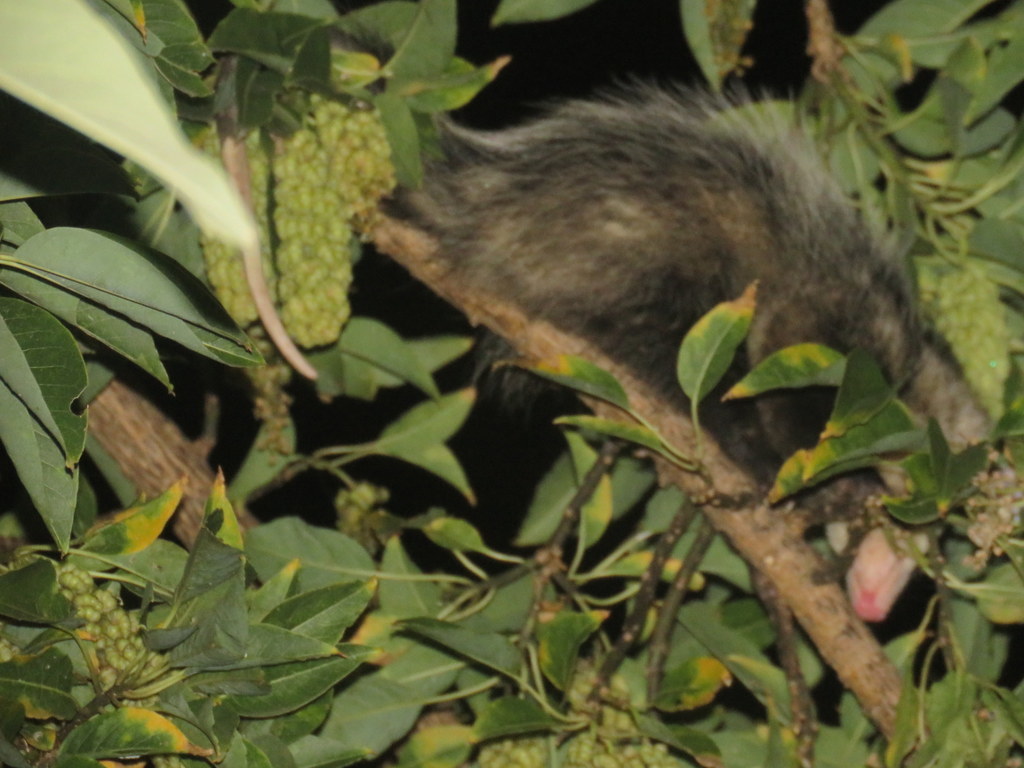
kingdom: Animalia
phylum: Chordata
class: Mammalia
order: Didelphimorphia
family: Didelphidae
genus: Didelphis
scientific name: Didelphis albiventris
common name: White-eared opossum
